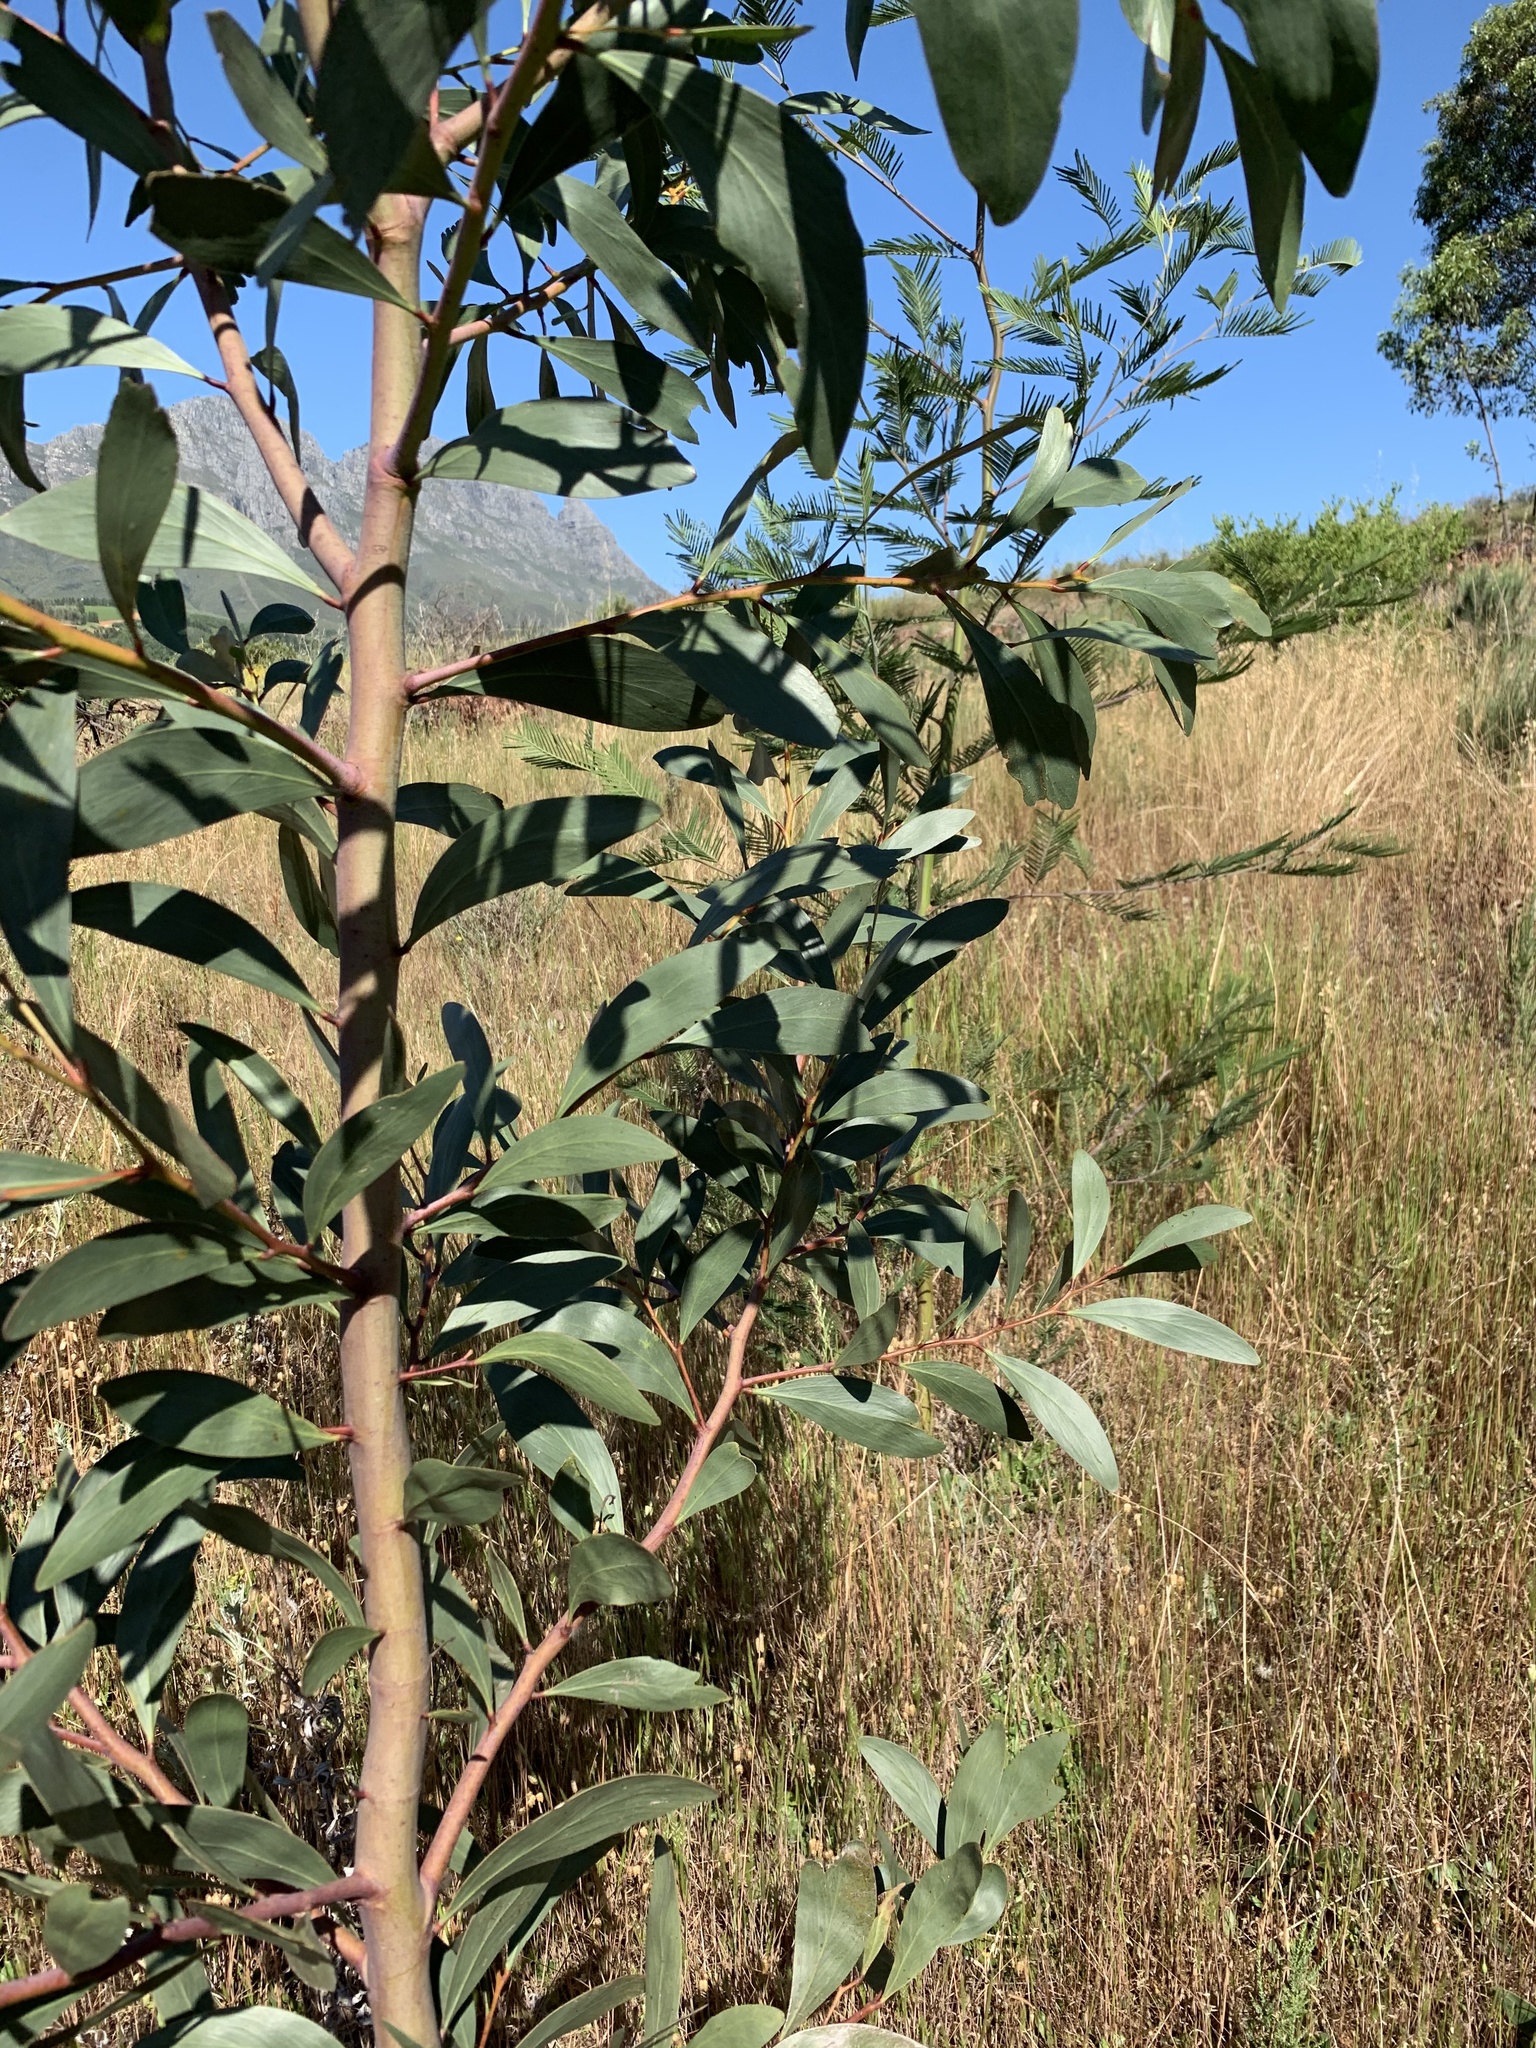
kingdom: Plantae
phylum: Tracheophyta
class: Magnoliopsida
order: Fabales
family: Fabaceae
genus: Acacia
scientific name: Acacia pycnantha
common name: Golden wattle
